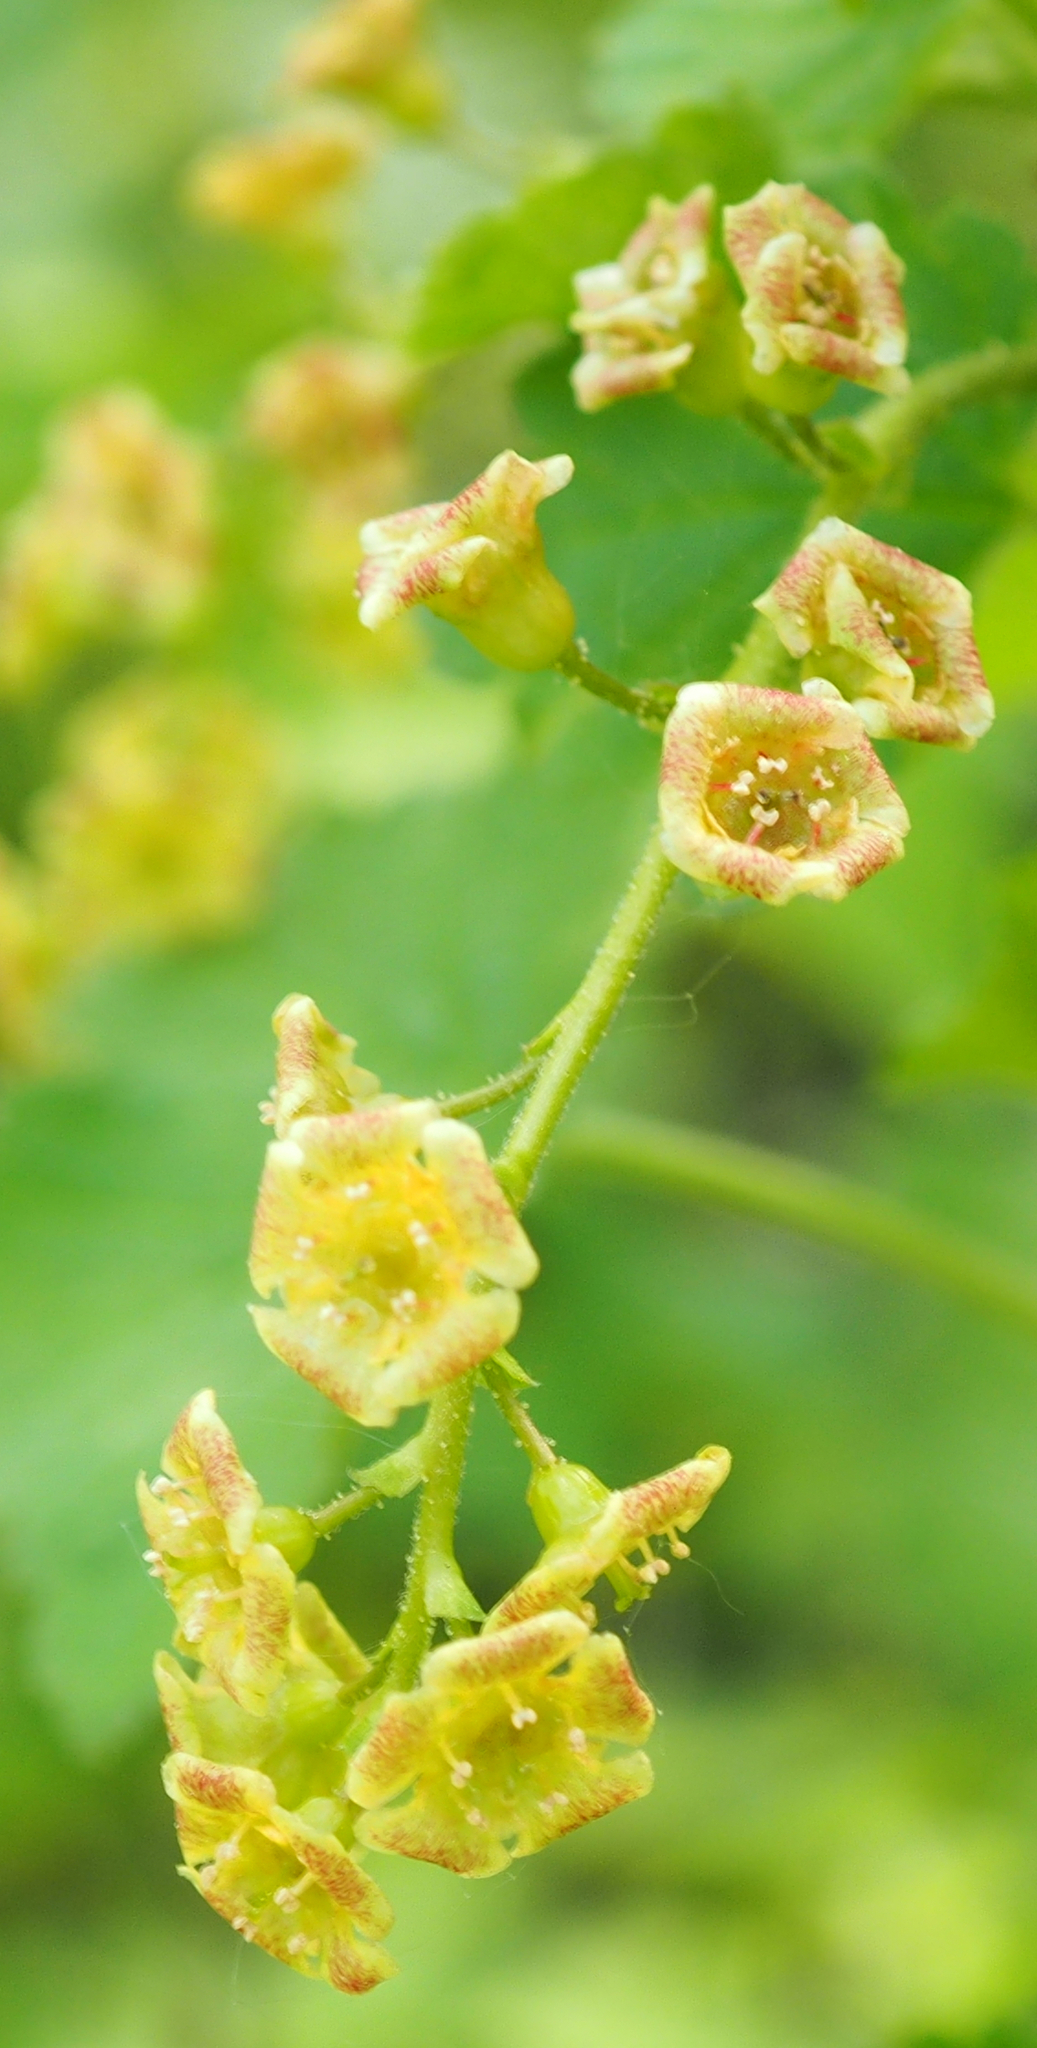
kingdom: Plantae
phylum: Tracheophyta
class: Magnoliopsida
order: Saxifragales
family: Grossulariaceae
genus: Ribes
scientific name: Ribes rubrum
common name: Red currant
